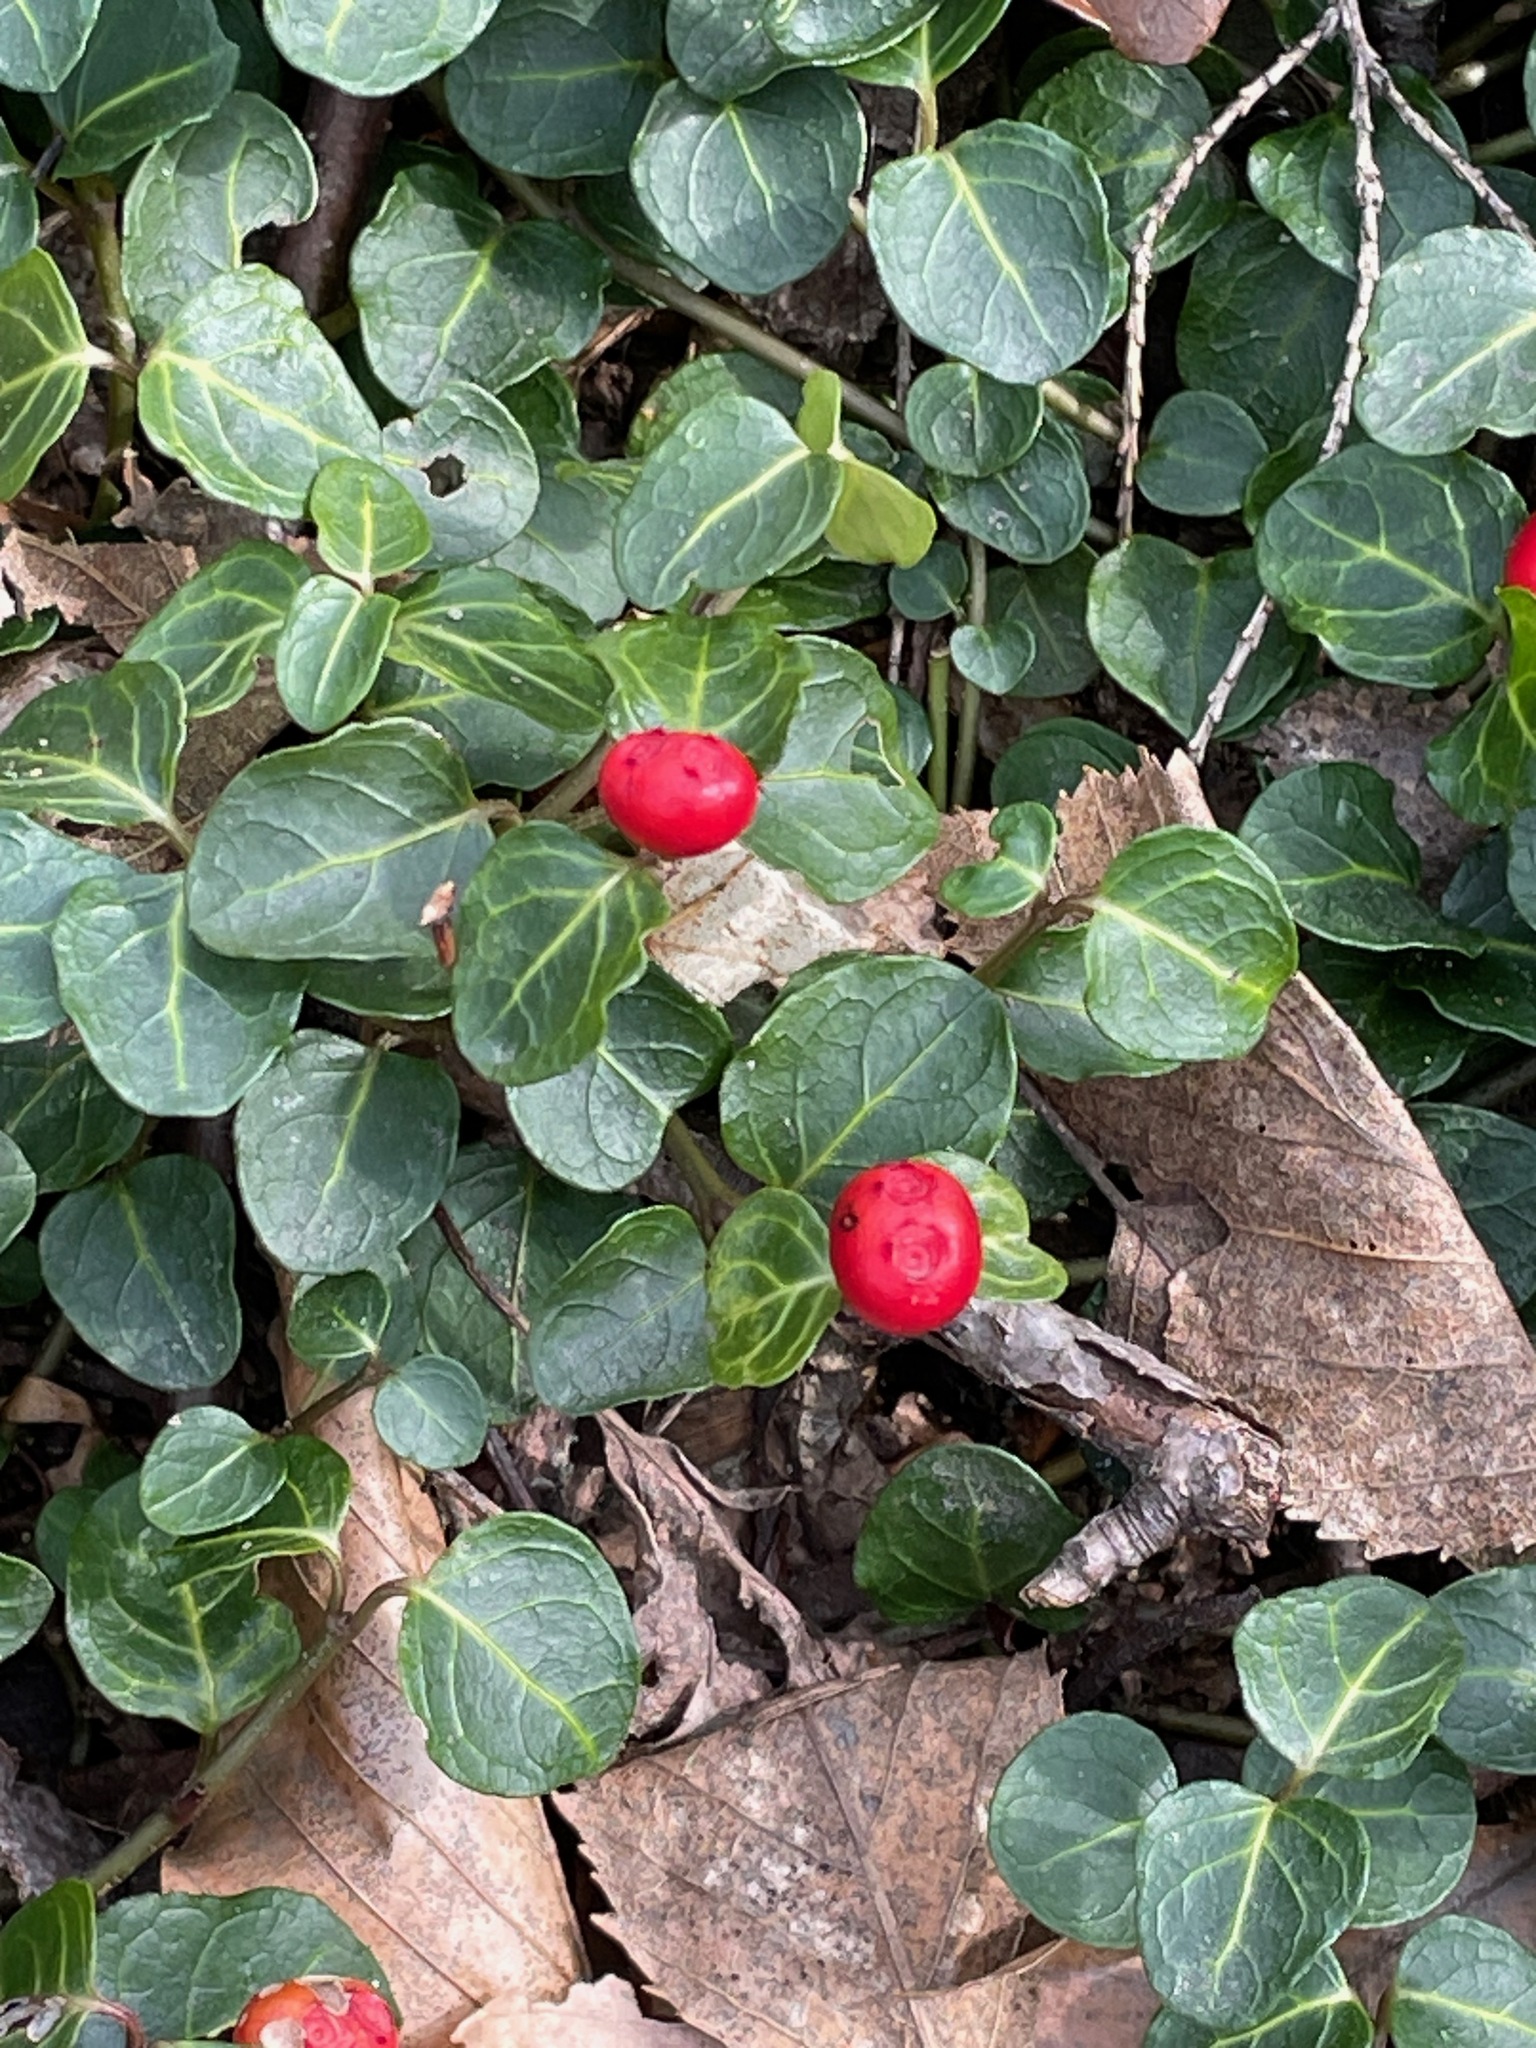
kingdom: Plantae
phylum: Tracheophyta
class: Magnoliopsida
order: Gentianales
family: Rubiaceae
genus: Mitchella
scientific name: Mitchella repens
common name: Partridge-berry
